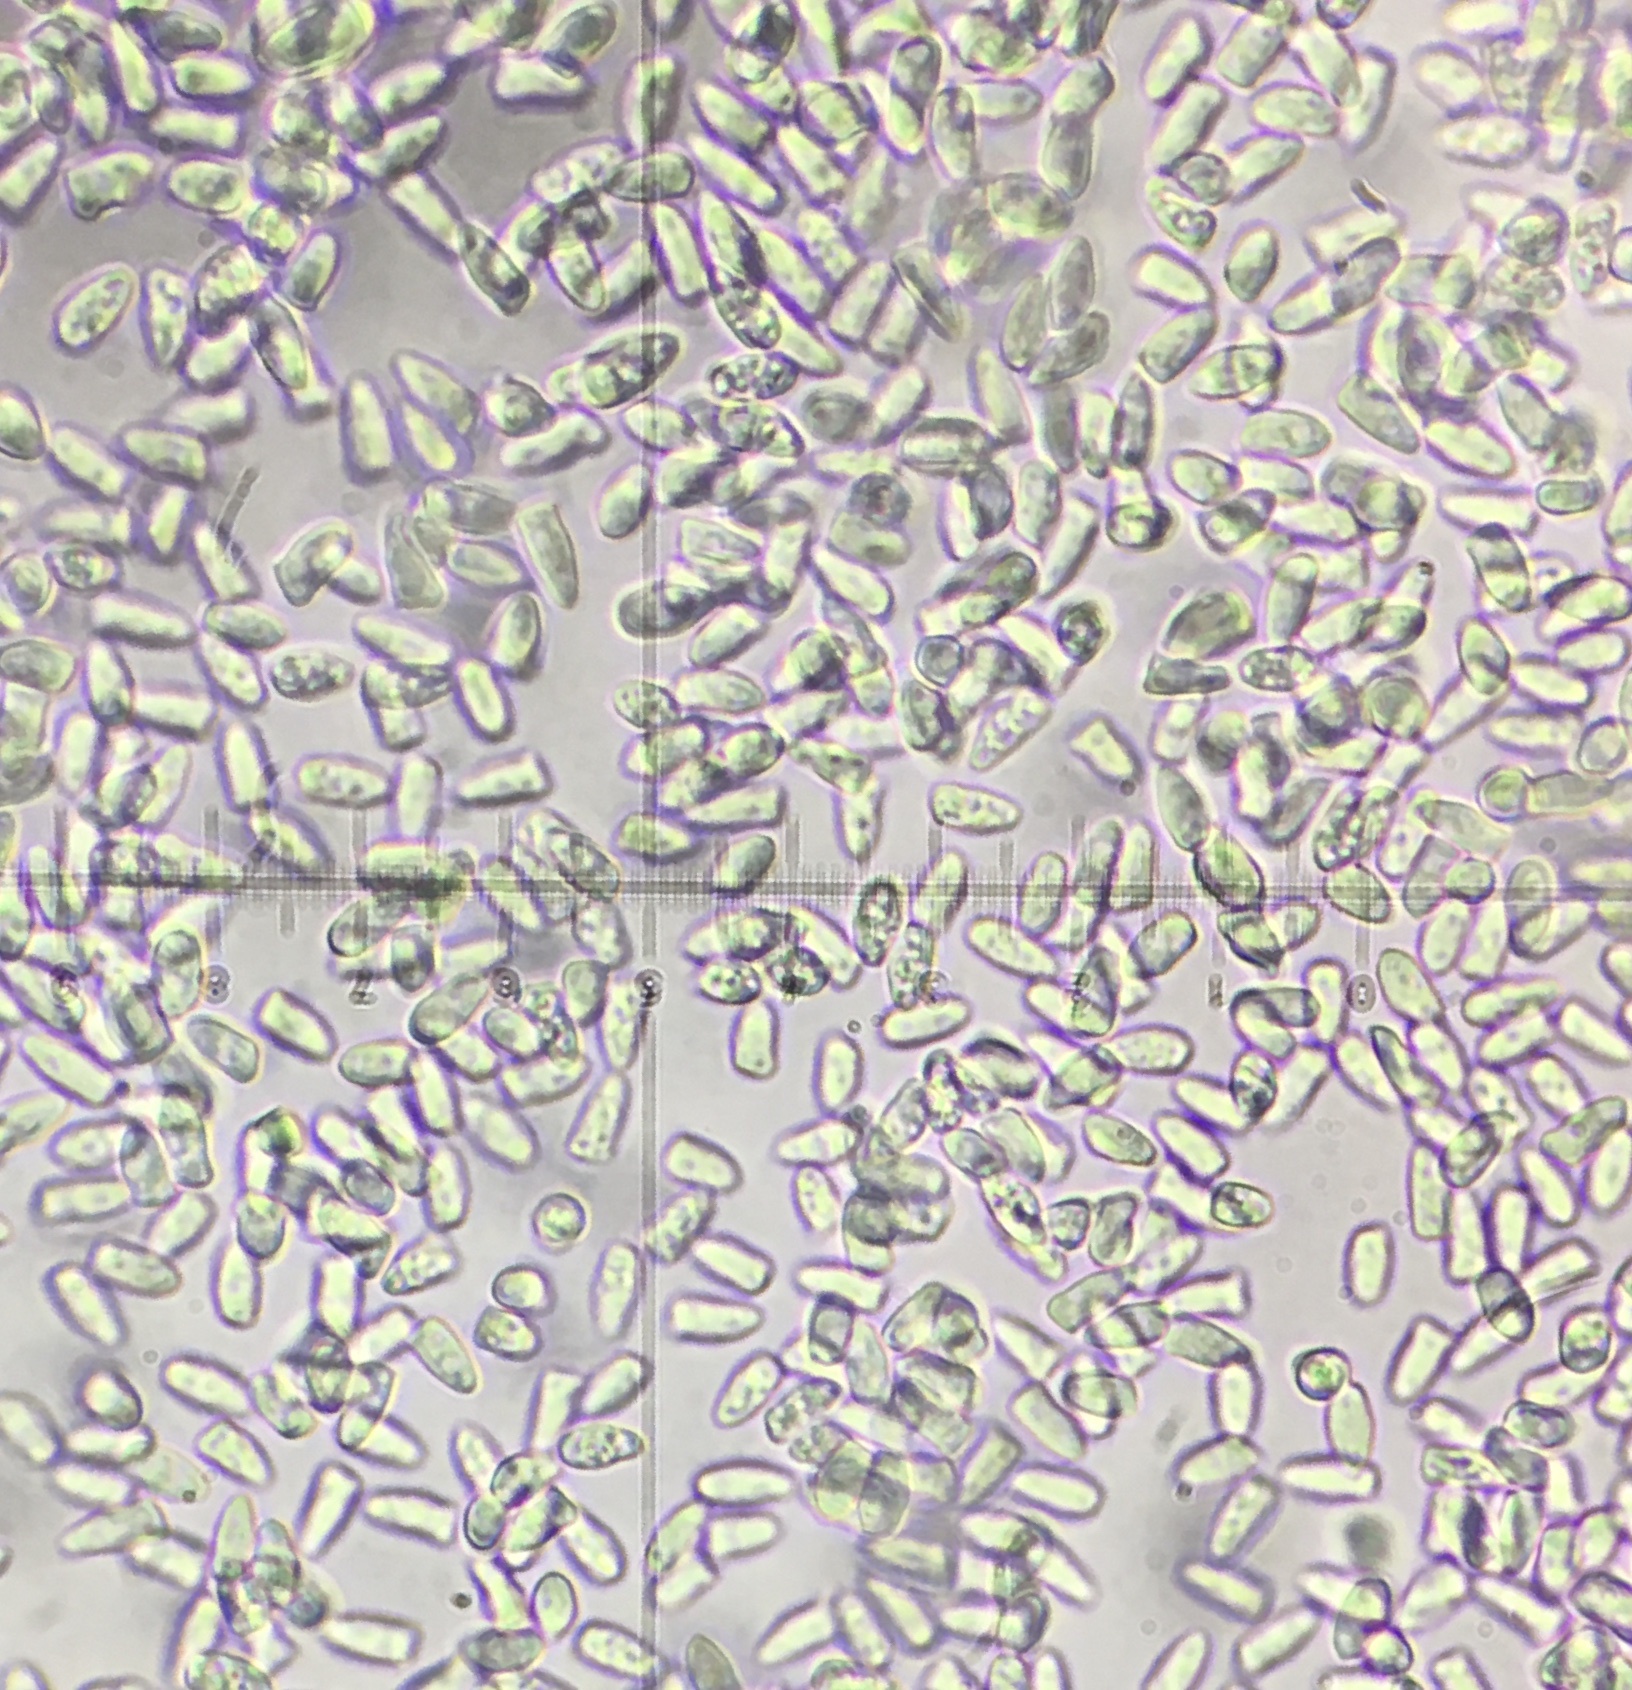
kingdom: Fungi
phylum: Basidiomycota
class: Agaricomycetes
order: Agaricales
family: Agaricaceae
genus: Lepiota
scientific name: Lepiota cristata
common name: Stinking dapperling
